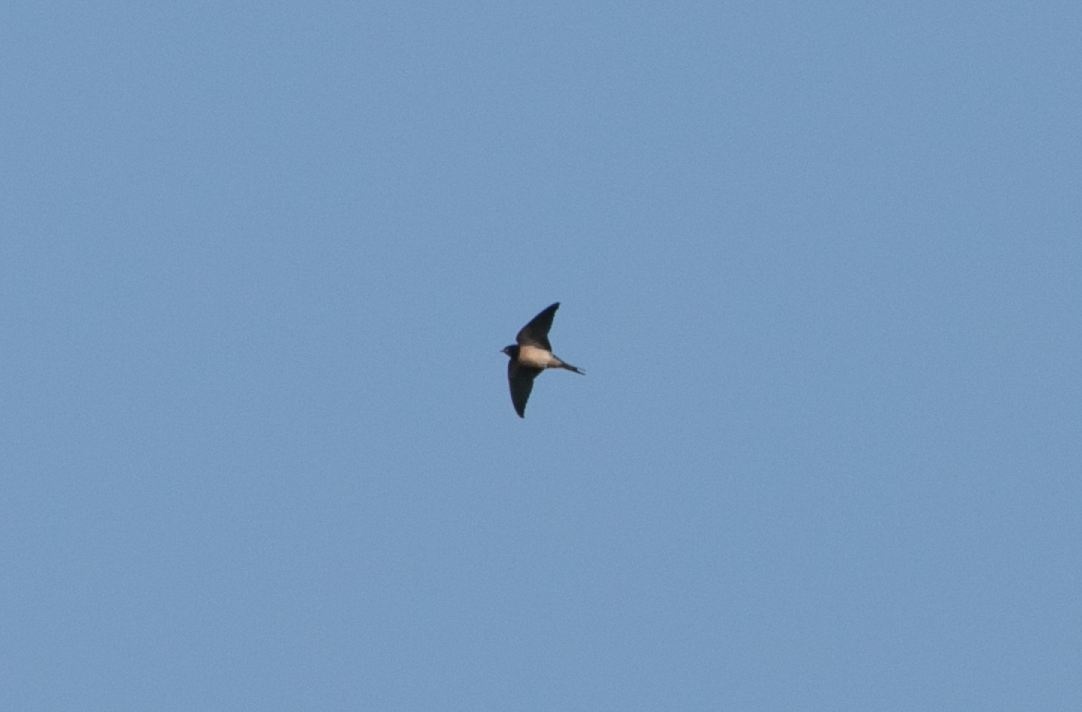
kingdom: Animalia
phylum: Chordata
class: Aves
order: Passeriformes
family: Hirundinidae
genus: Hirundo
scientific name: Hirundo rustica
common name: Barn swallow
